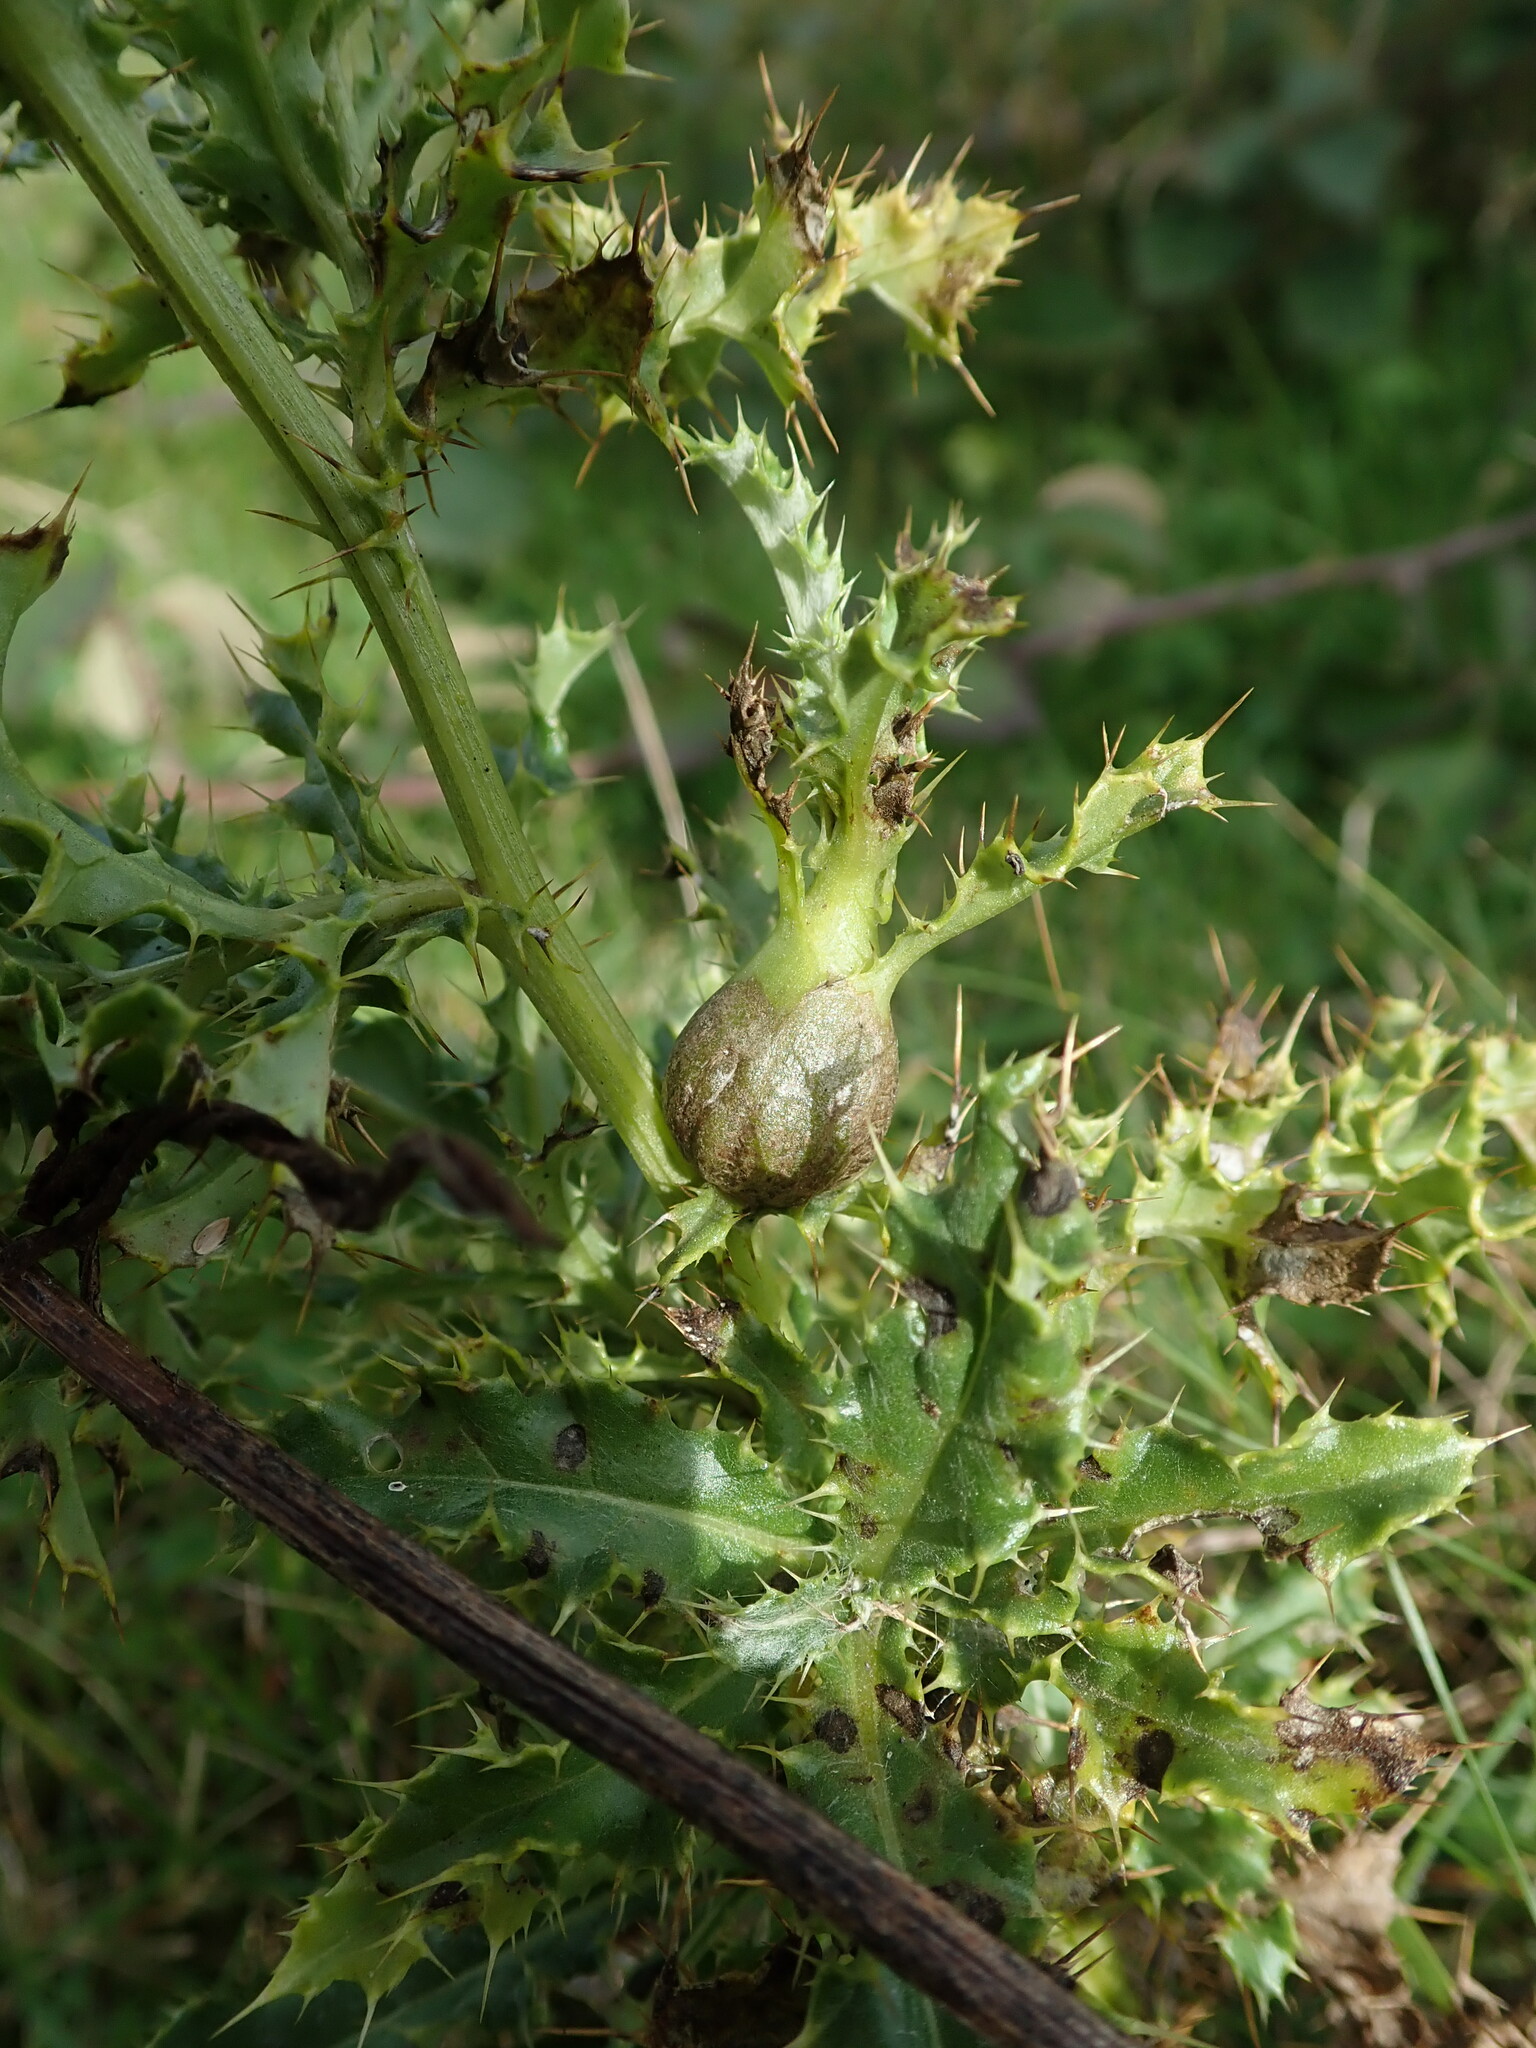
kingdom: Animalia
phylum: Arthropoda
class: Insecta
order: Diptera
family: Tephritidae
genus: Urophora
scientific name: Urophora cardui
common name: Fruit fly
